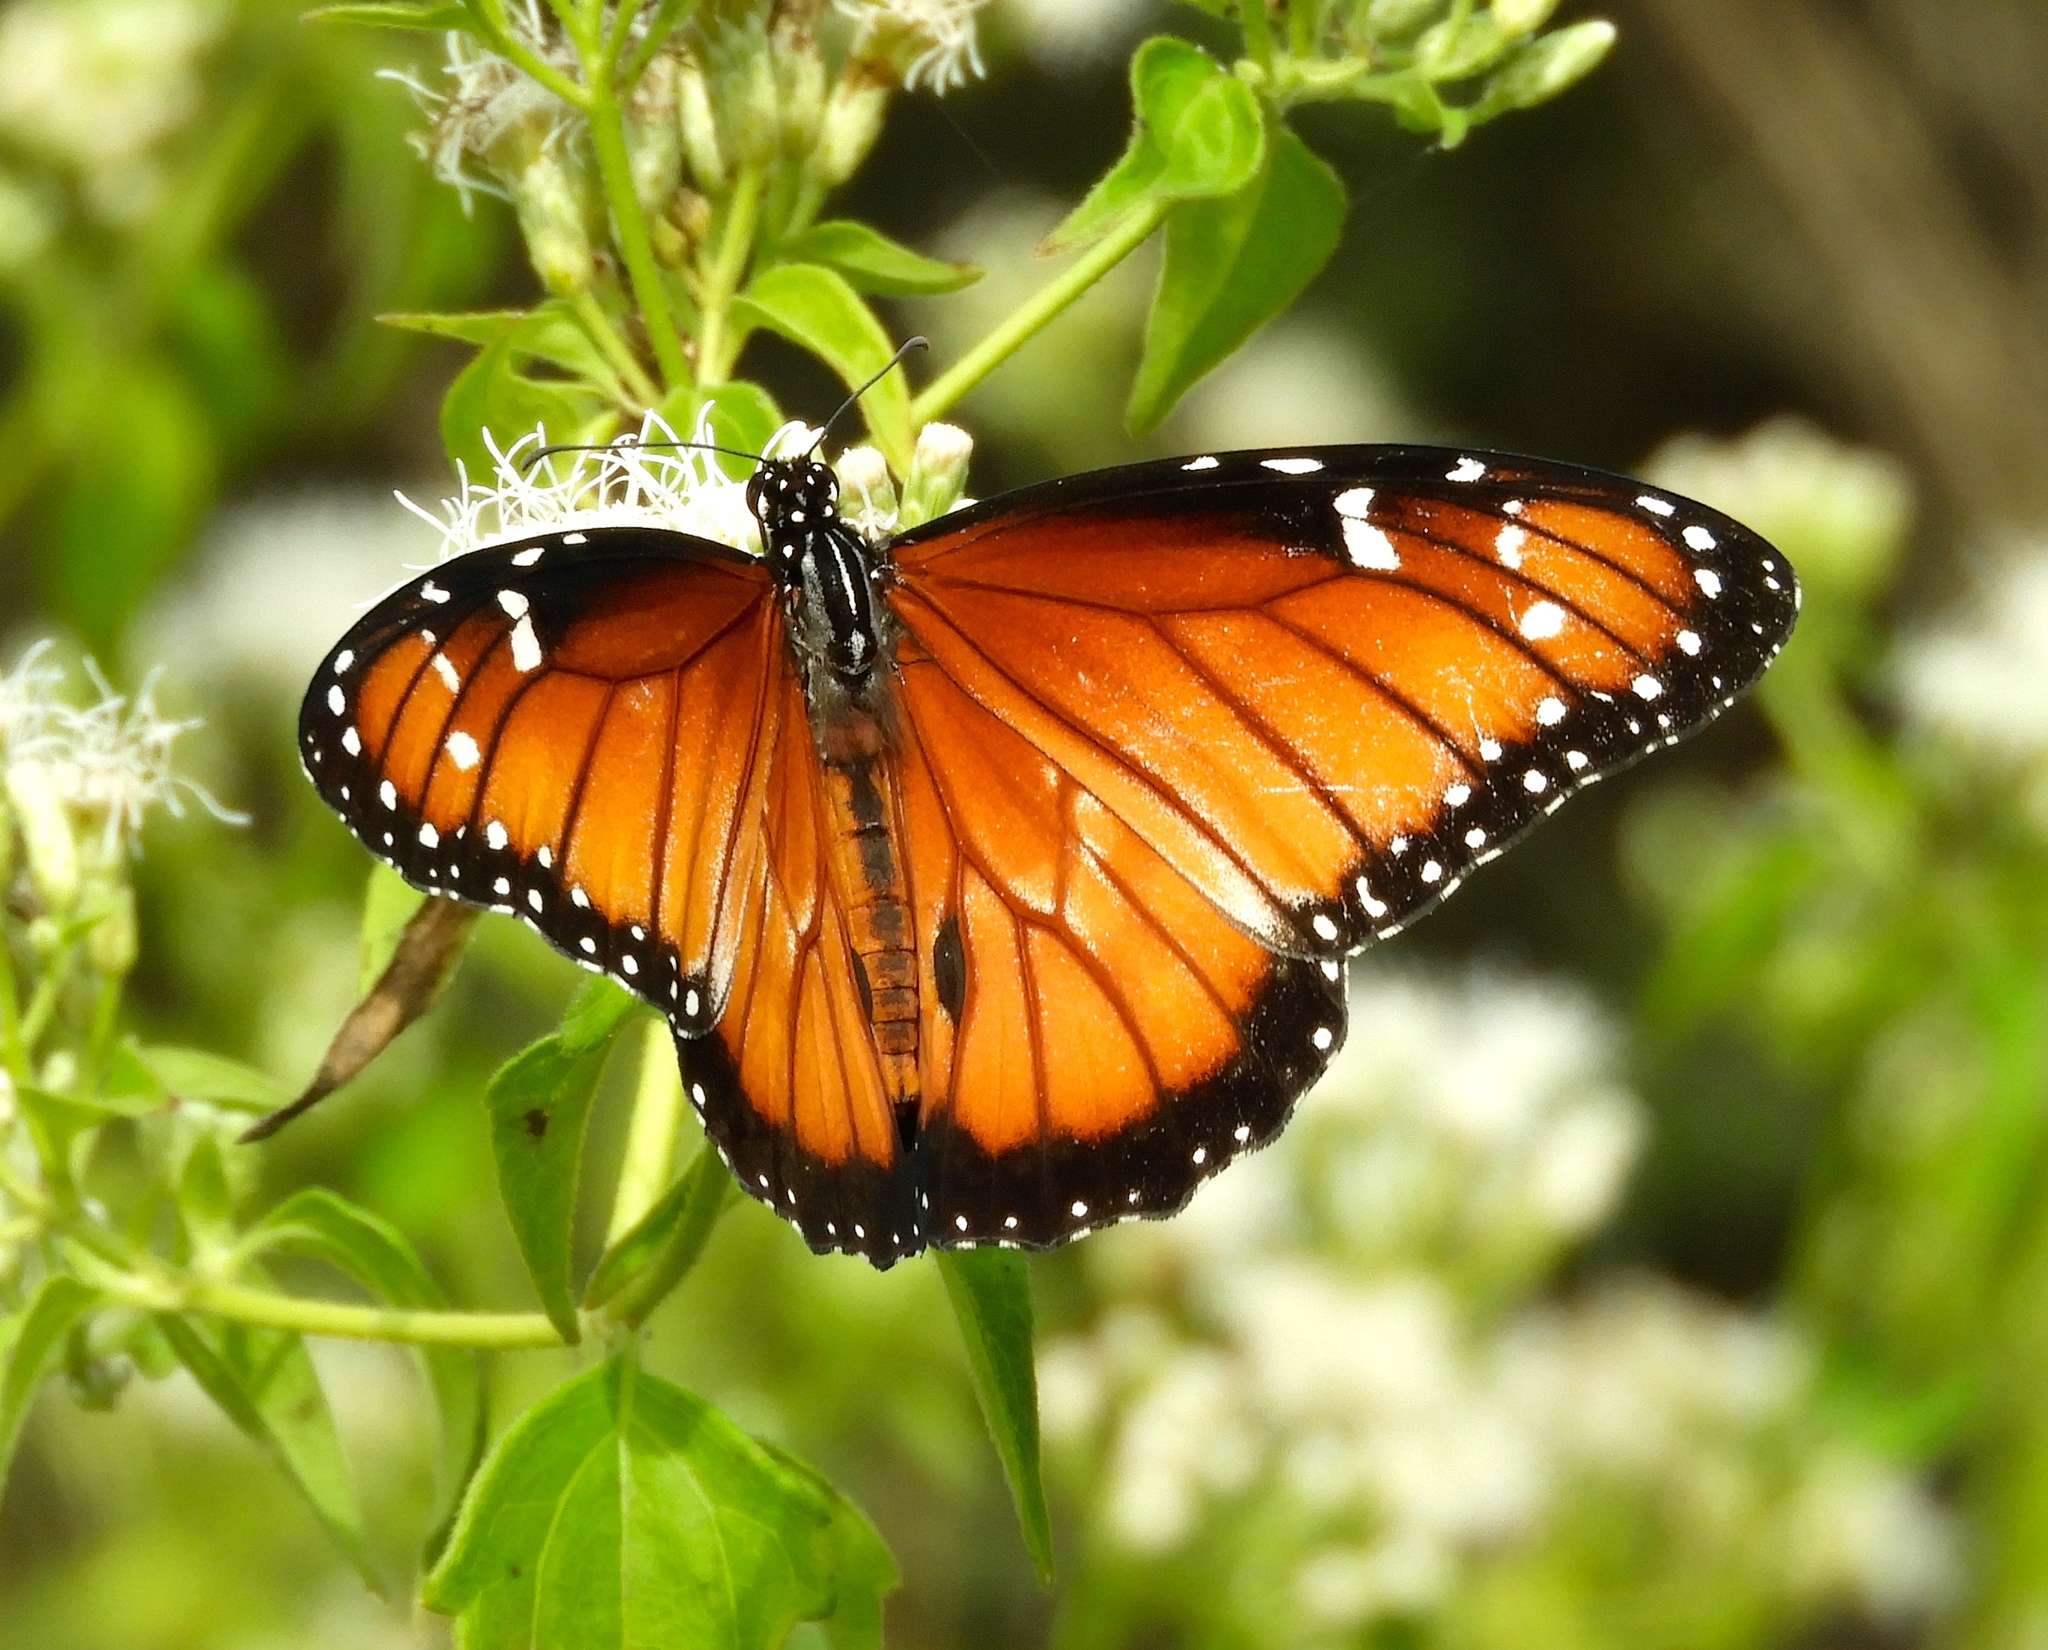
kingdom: Animalia
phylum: Arthropoda
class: Insecta
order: Lepidoptera
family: Nymphalidae
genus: Danaus
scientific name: Danaus eresimus
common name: Soldier
